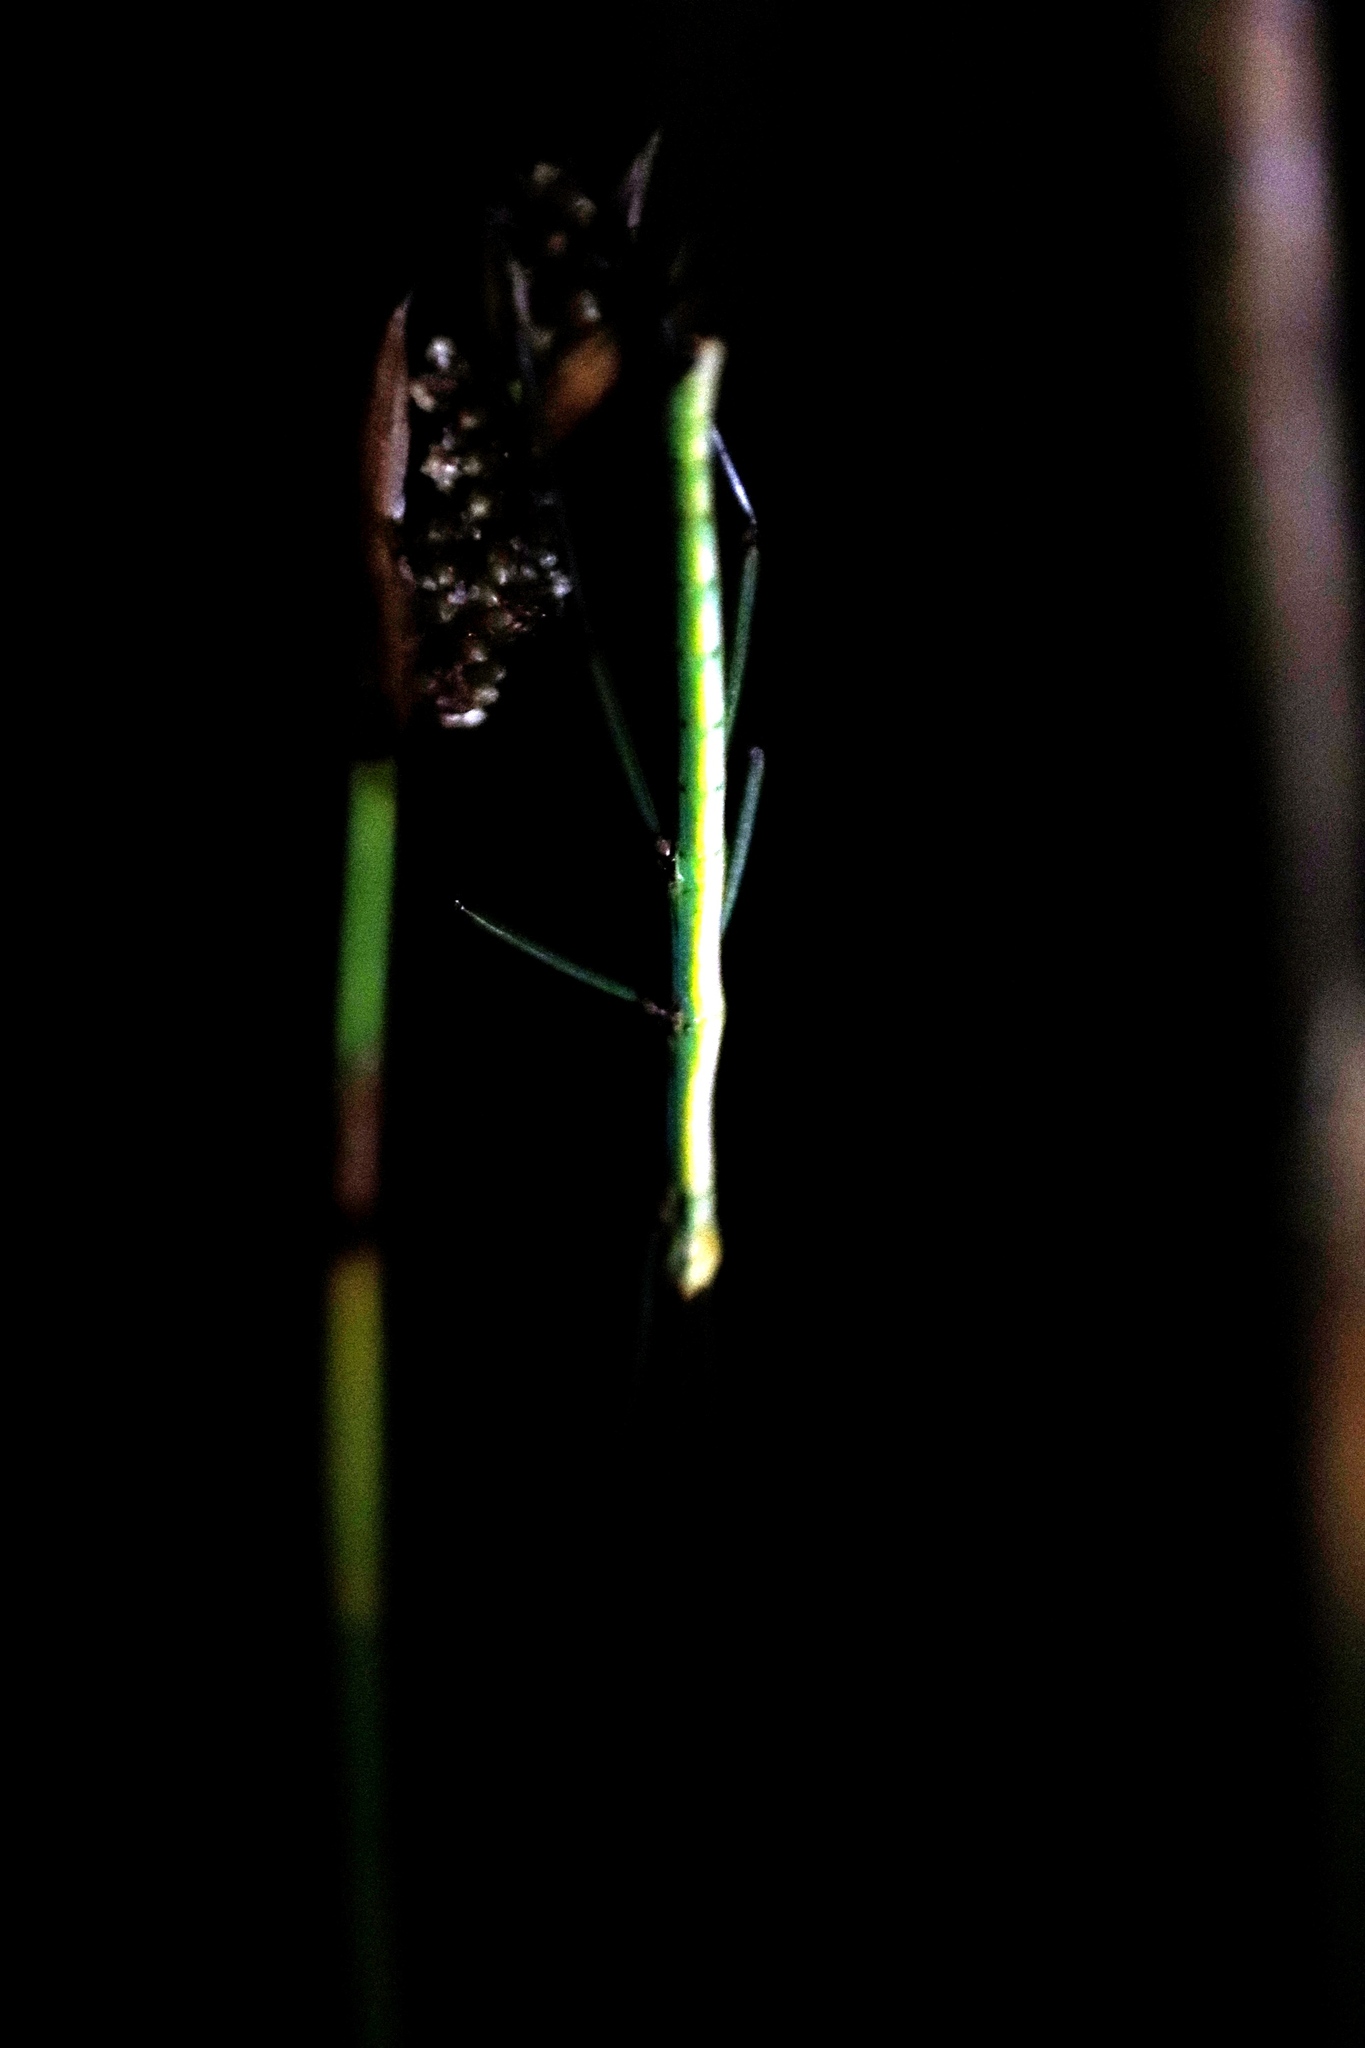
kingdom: Animalia
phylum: Arthropoda
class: Insecta
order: Phasmida
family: Bacillidae
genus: Macynia
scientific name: Macynia labiata
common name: Thunberg's stick insect
